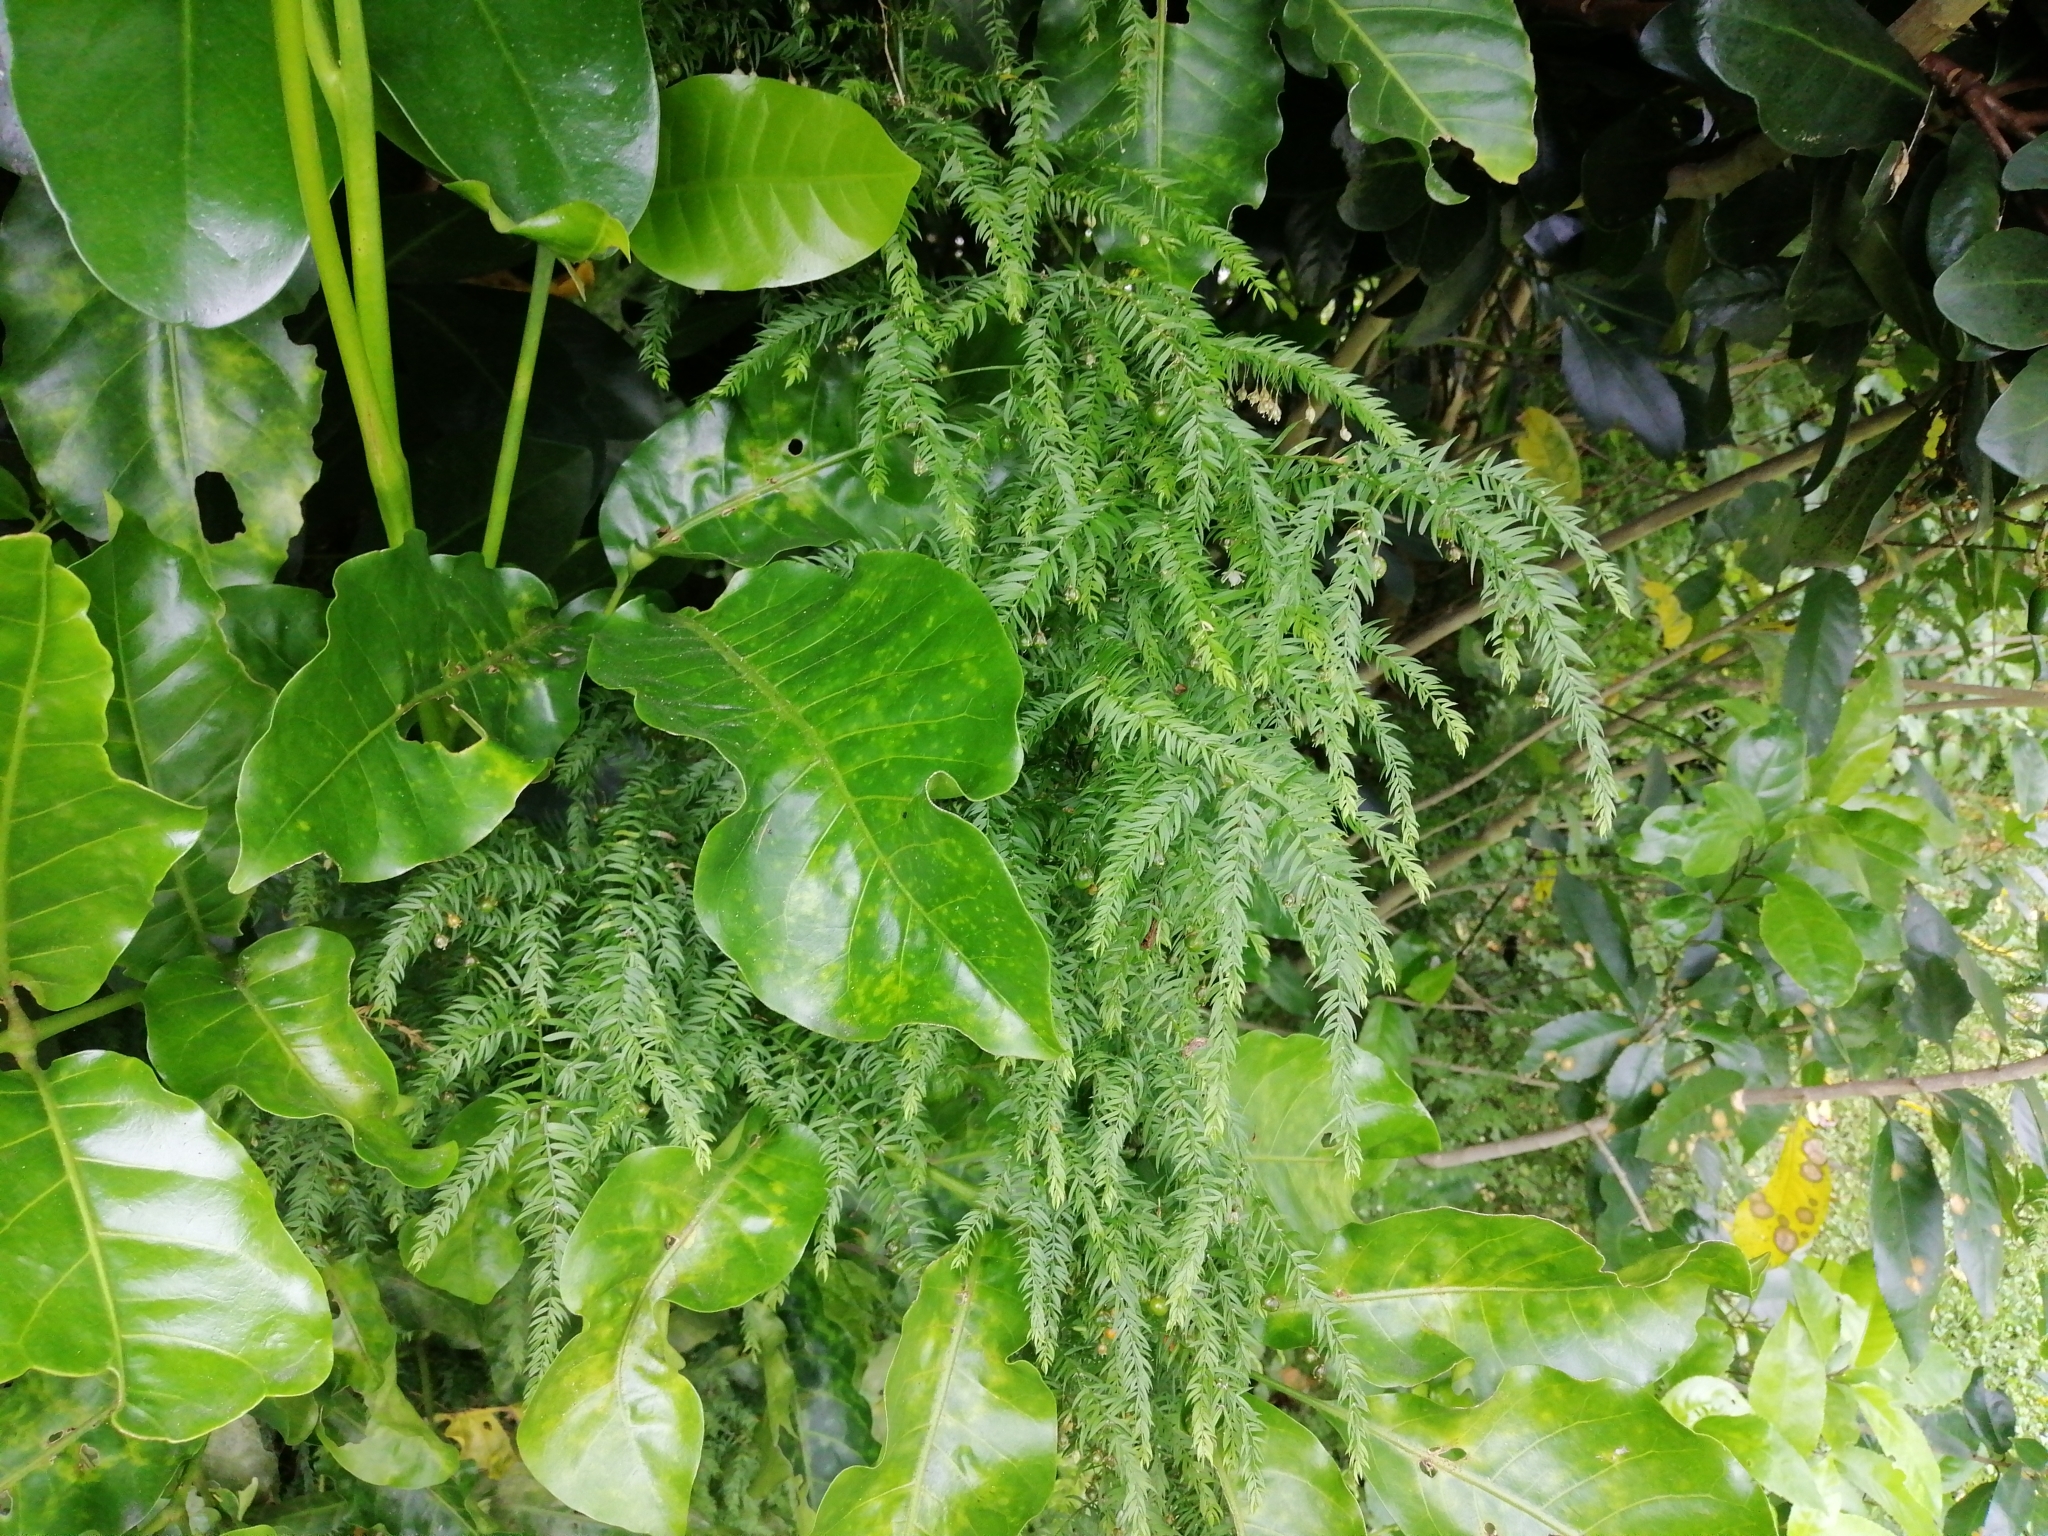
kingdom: Plantae
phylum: Tracheophyta
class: Liliopsida
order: Asparagales
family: Asparagaceae
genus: Asparagus
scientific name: Asparagus scandens
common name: Asparagus-fern
